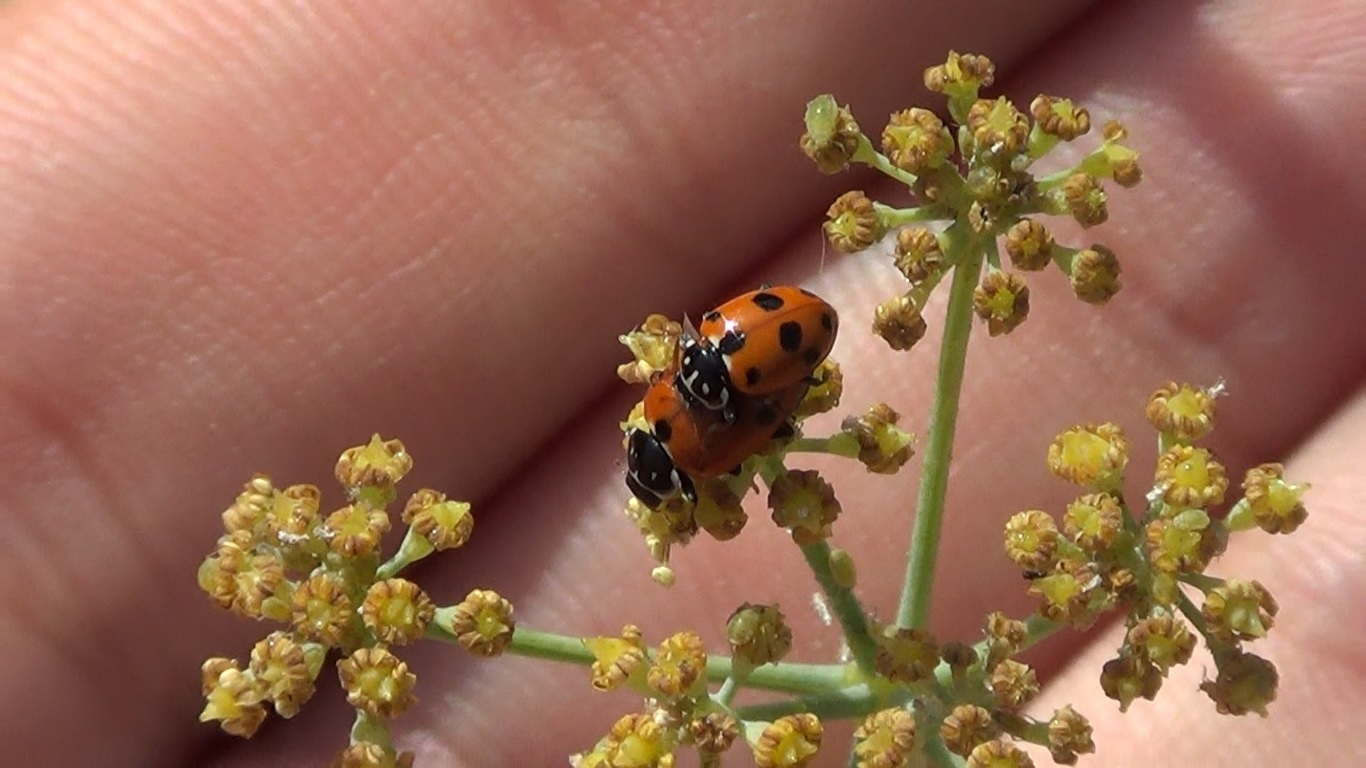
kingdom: Animalia
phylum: Arthropoda
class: Insecta
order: Coleoptera
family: Coccinellidae
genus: Hippodamia
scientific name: Hippodamia variegata
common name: Ladybird beetle
